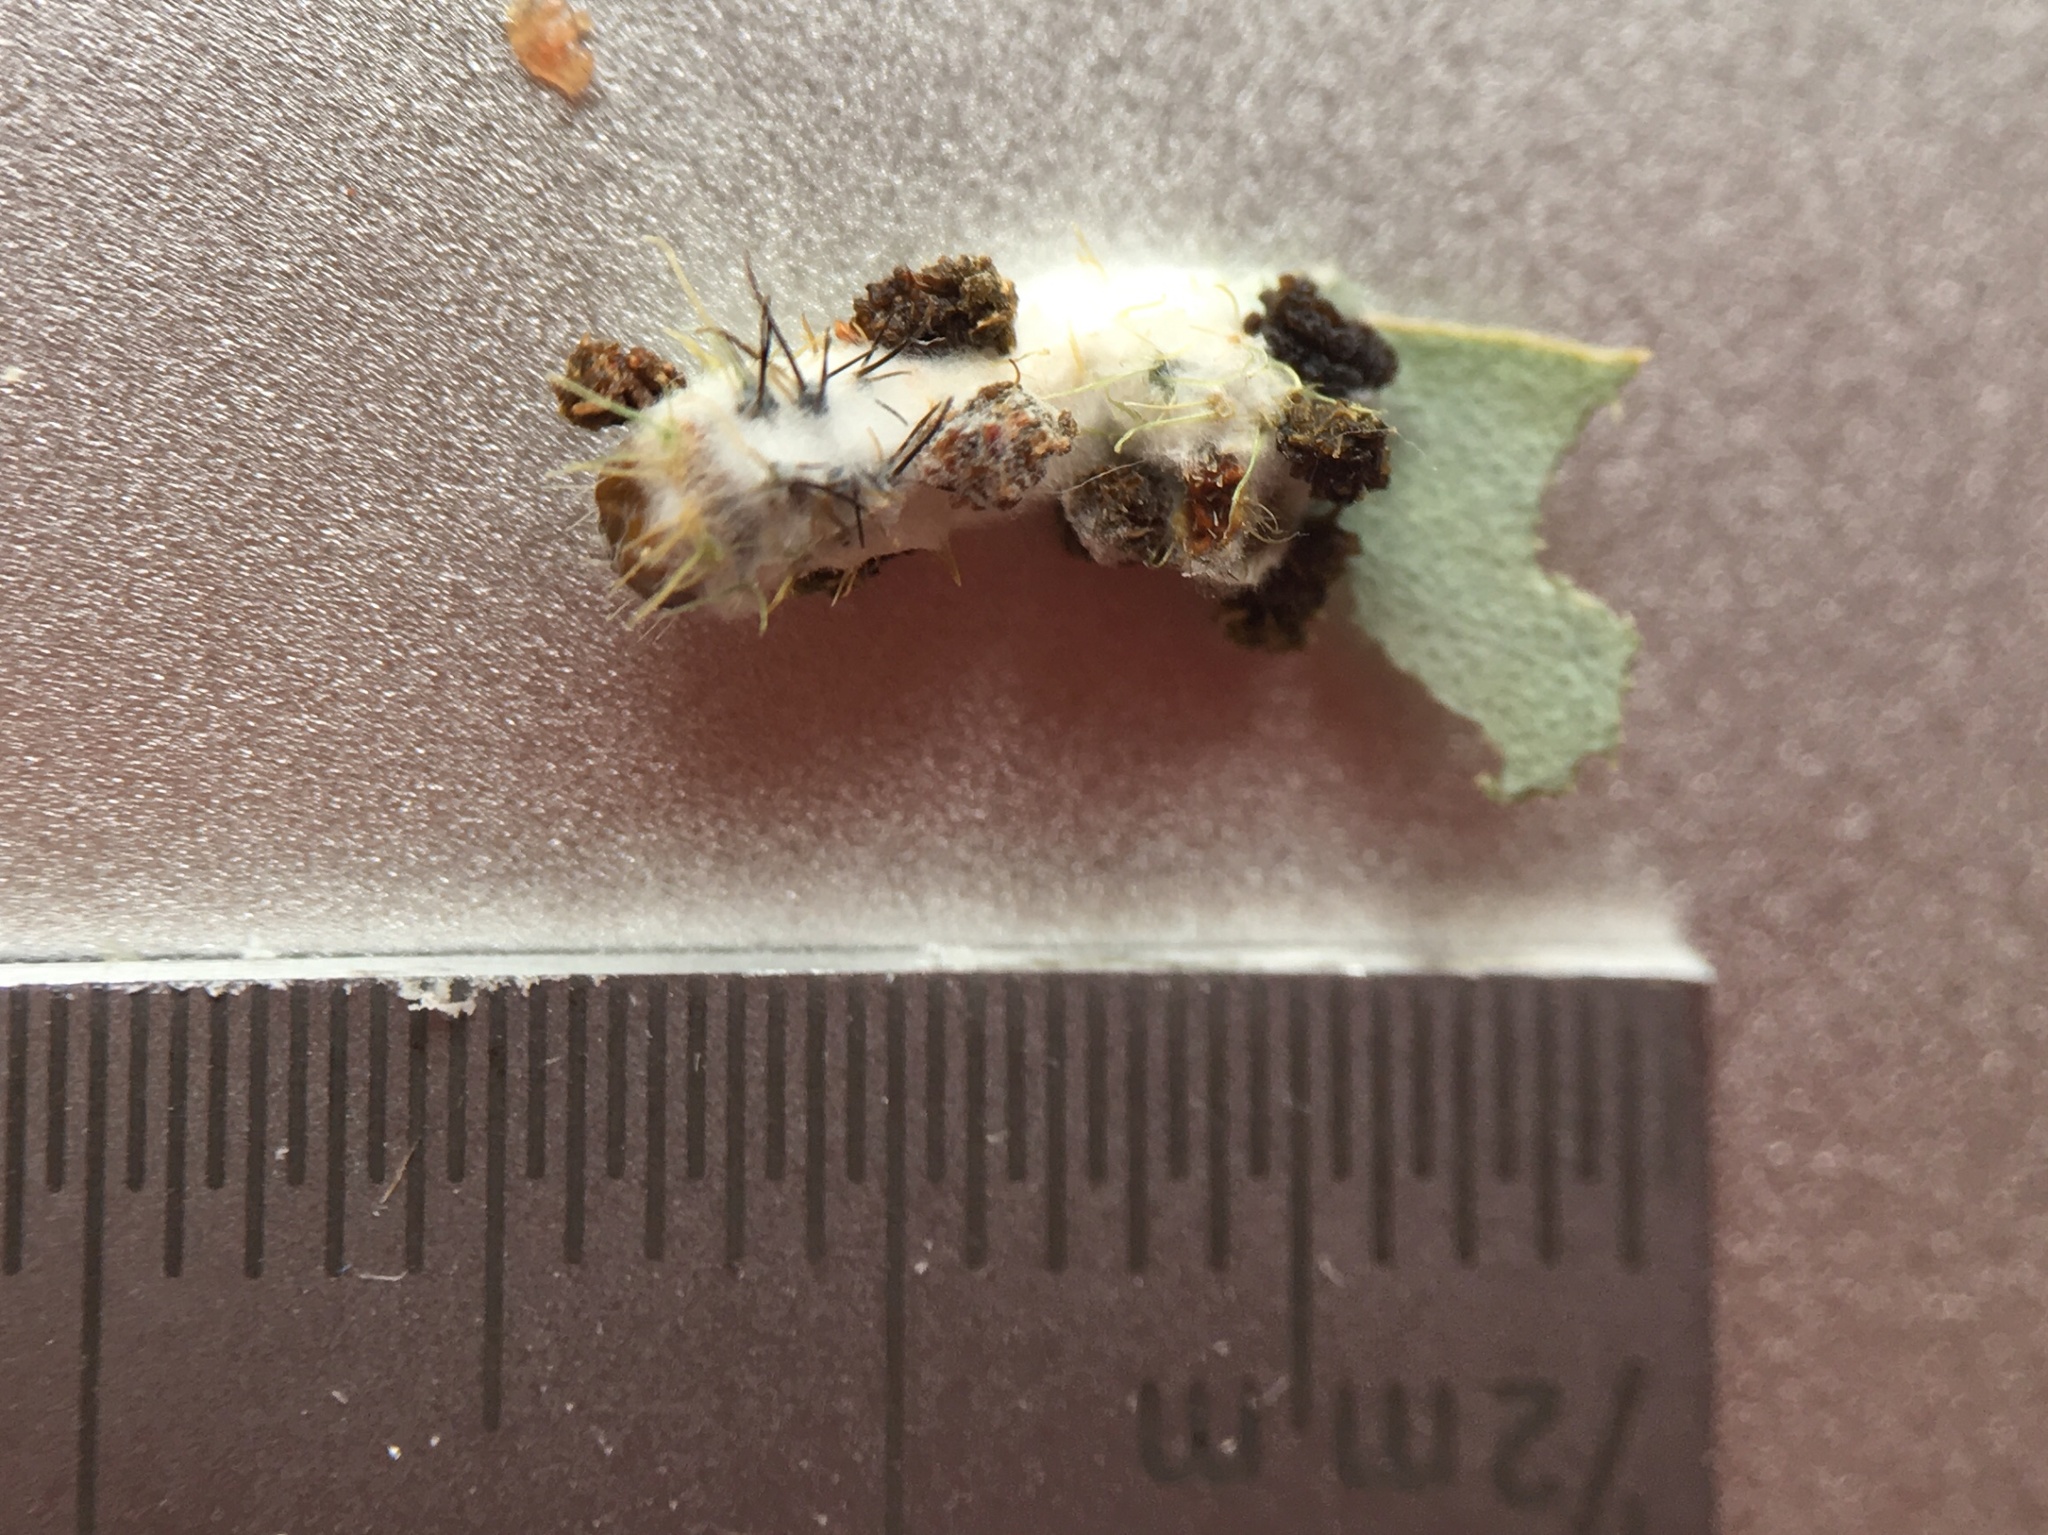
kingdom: Animalia
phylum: Arthropoda
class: Insecta
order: Lepidoptera
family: Saturniidae
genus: Opodiphthera
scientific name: Opodiphthera
